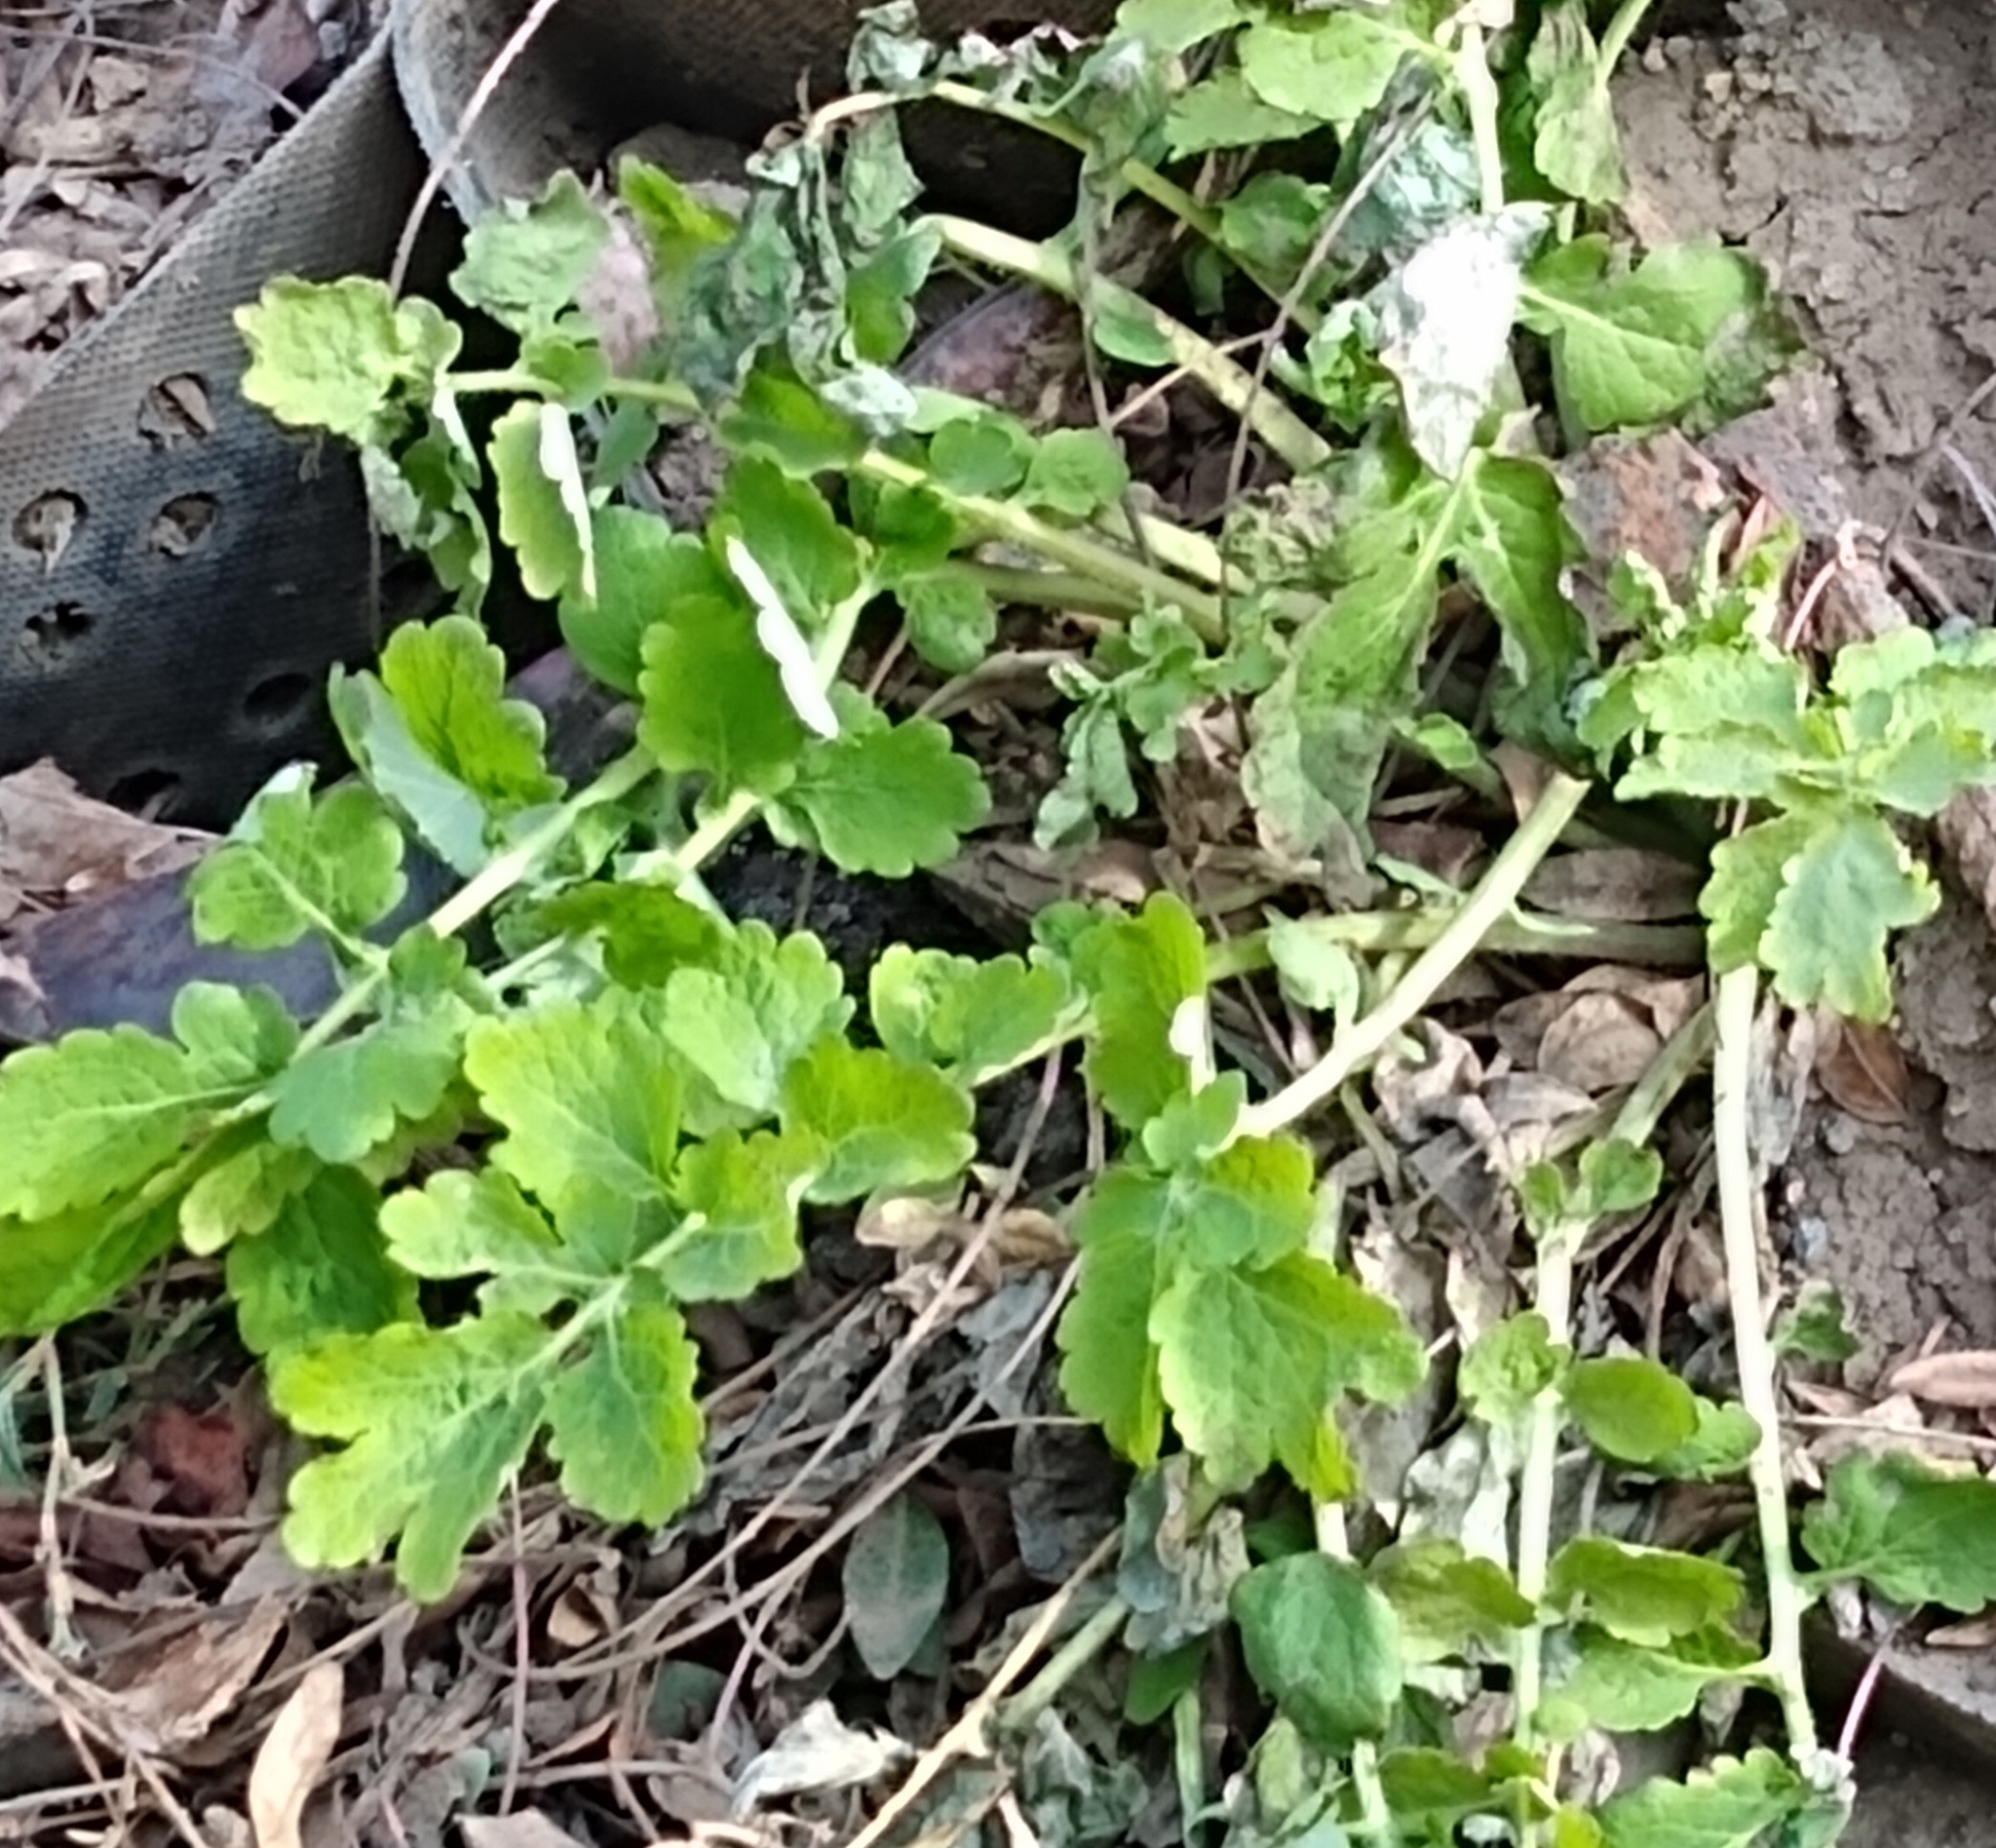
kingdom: Plantae
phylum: Tracheophyta
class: Magnoliopsida
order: Ranunculales
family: Papaveraceae
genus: Chelidonium
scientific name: Chelidonium majus
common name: Greater celandine
